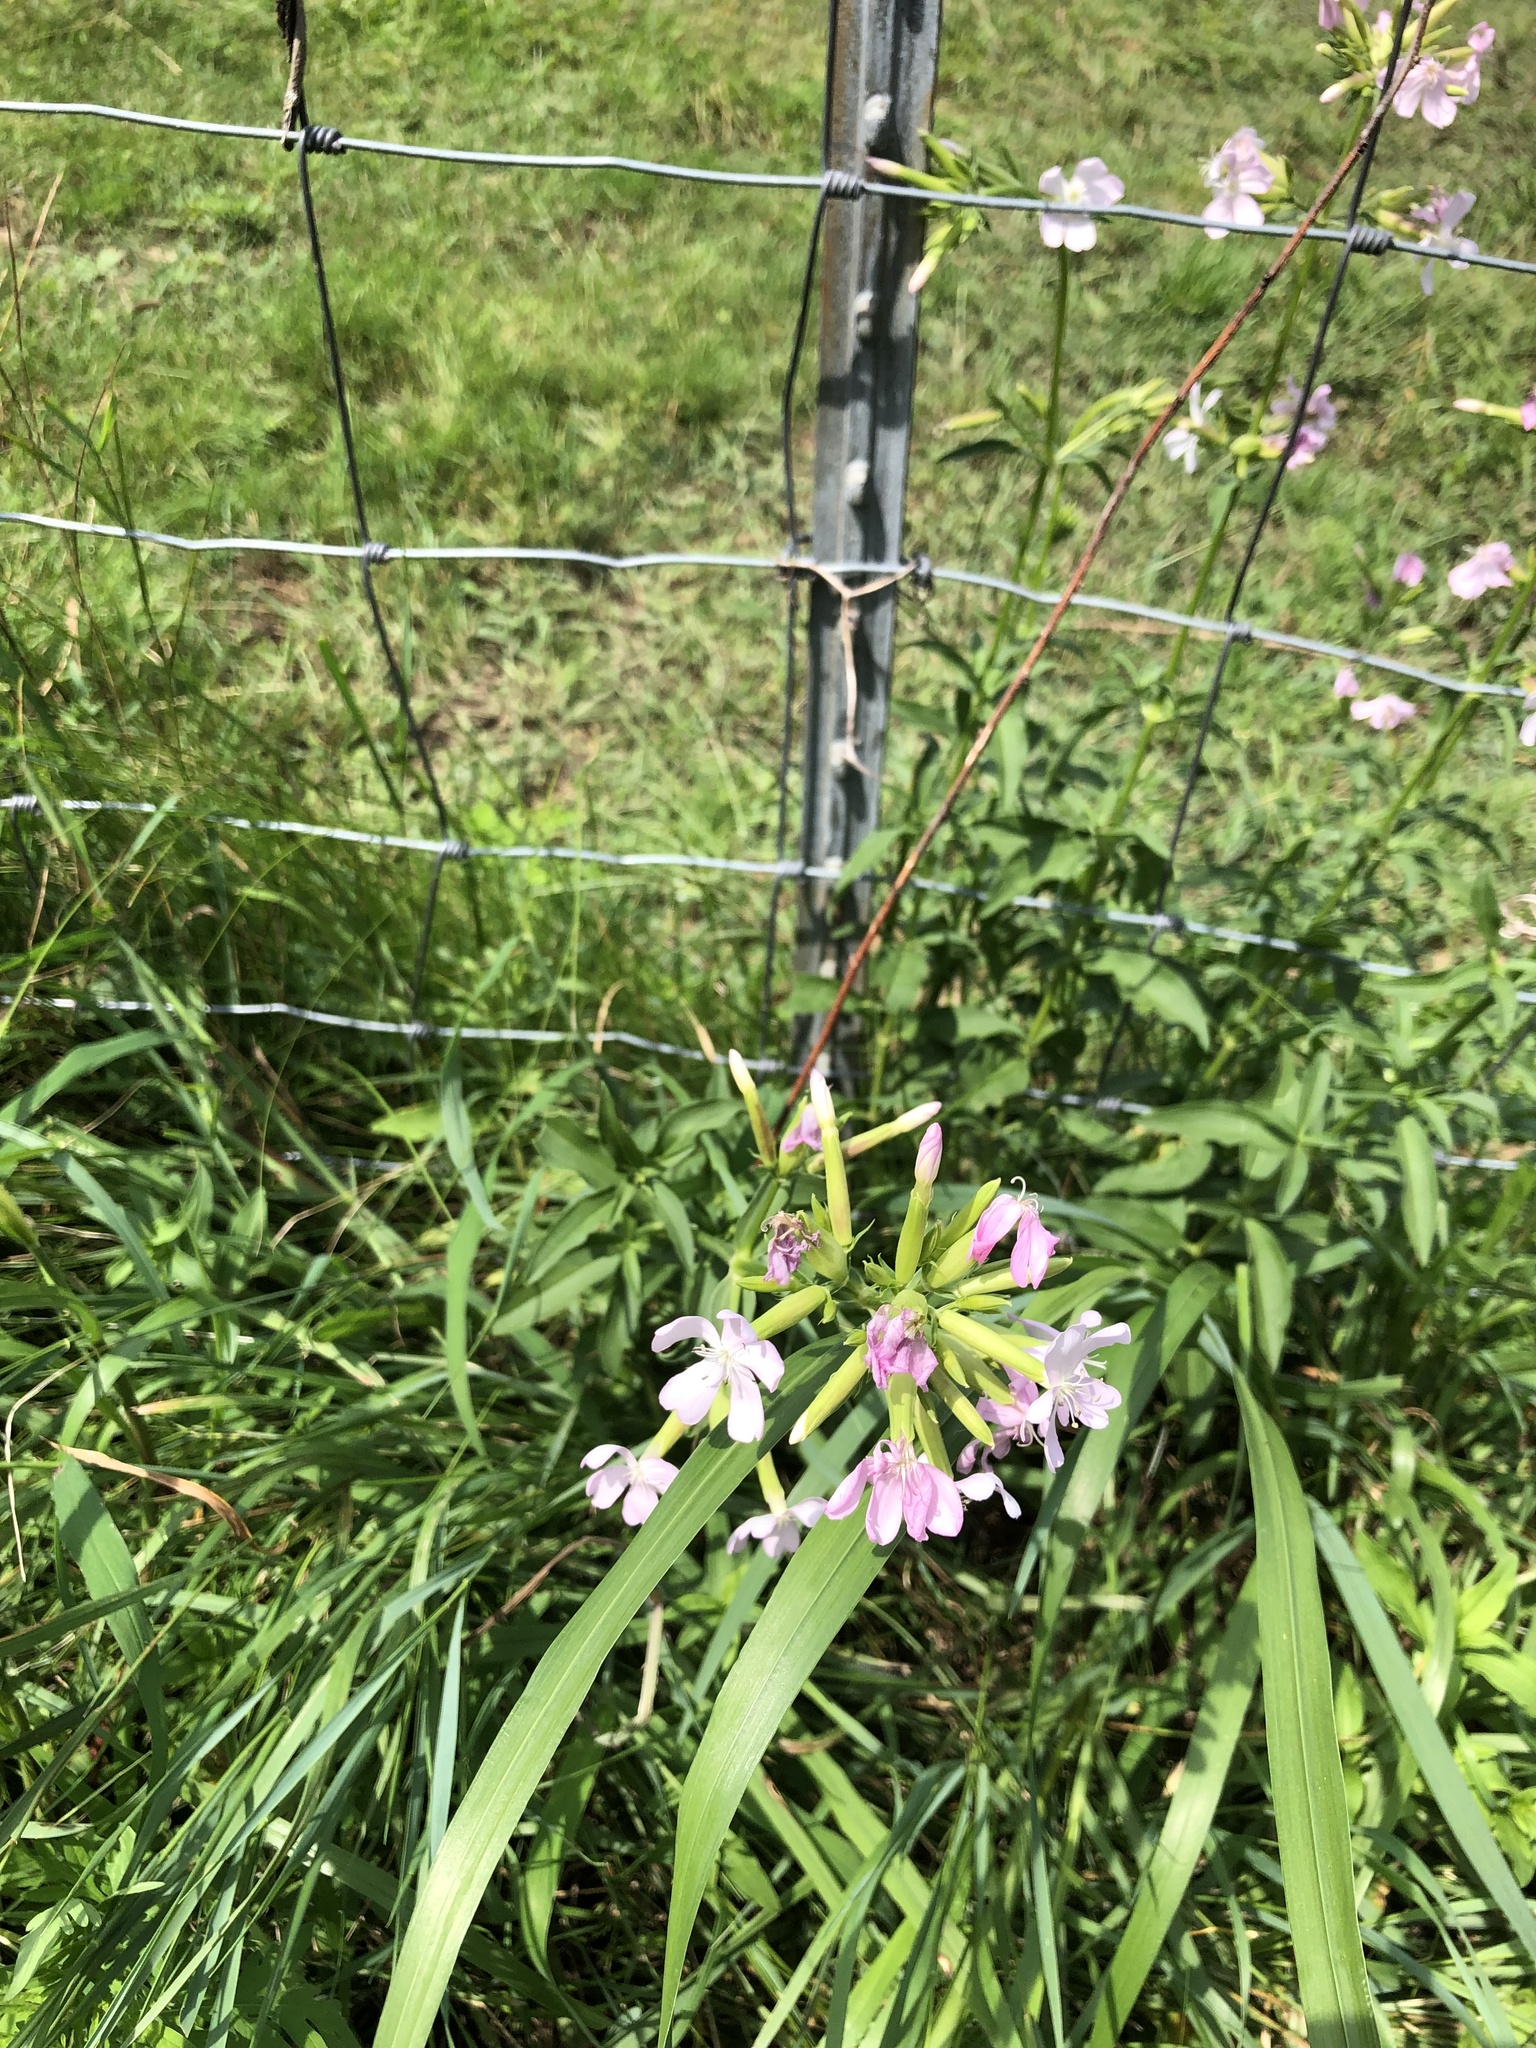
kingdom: Plantae
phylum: Tracheophyta
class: Magnoliopsida
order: Caryophyllales
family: Caryophyllaceae
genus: Saponaria
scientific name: Saponaria officinalis
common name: Soapwort
